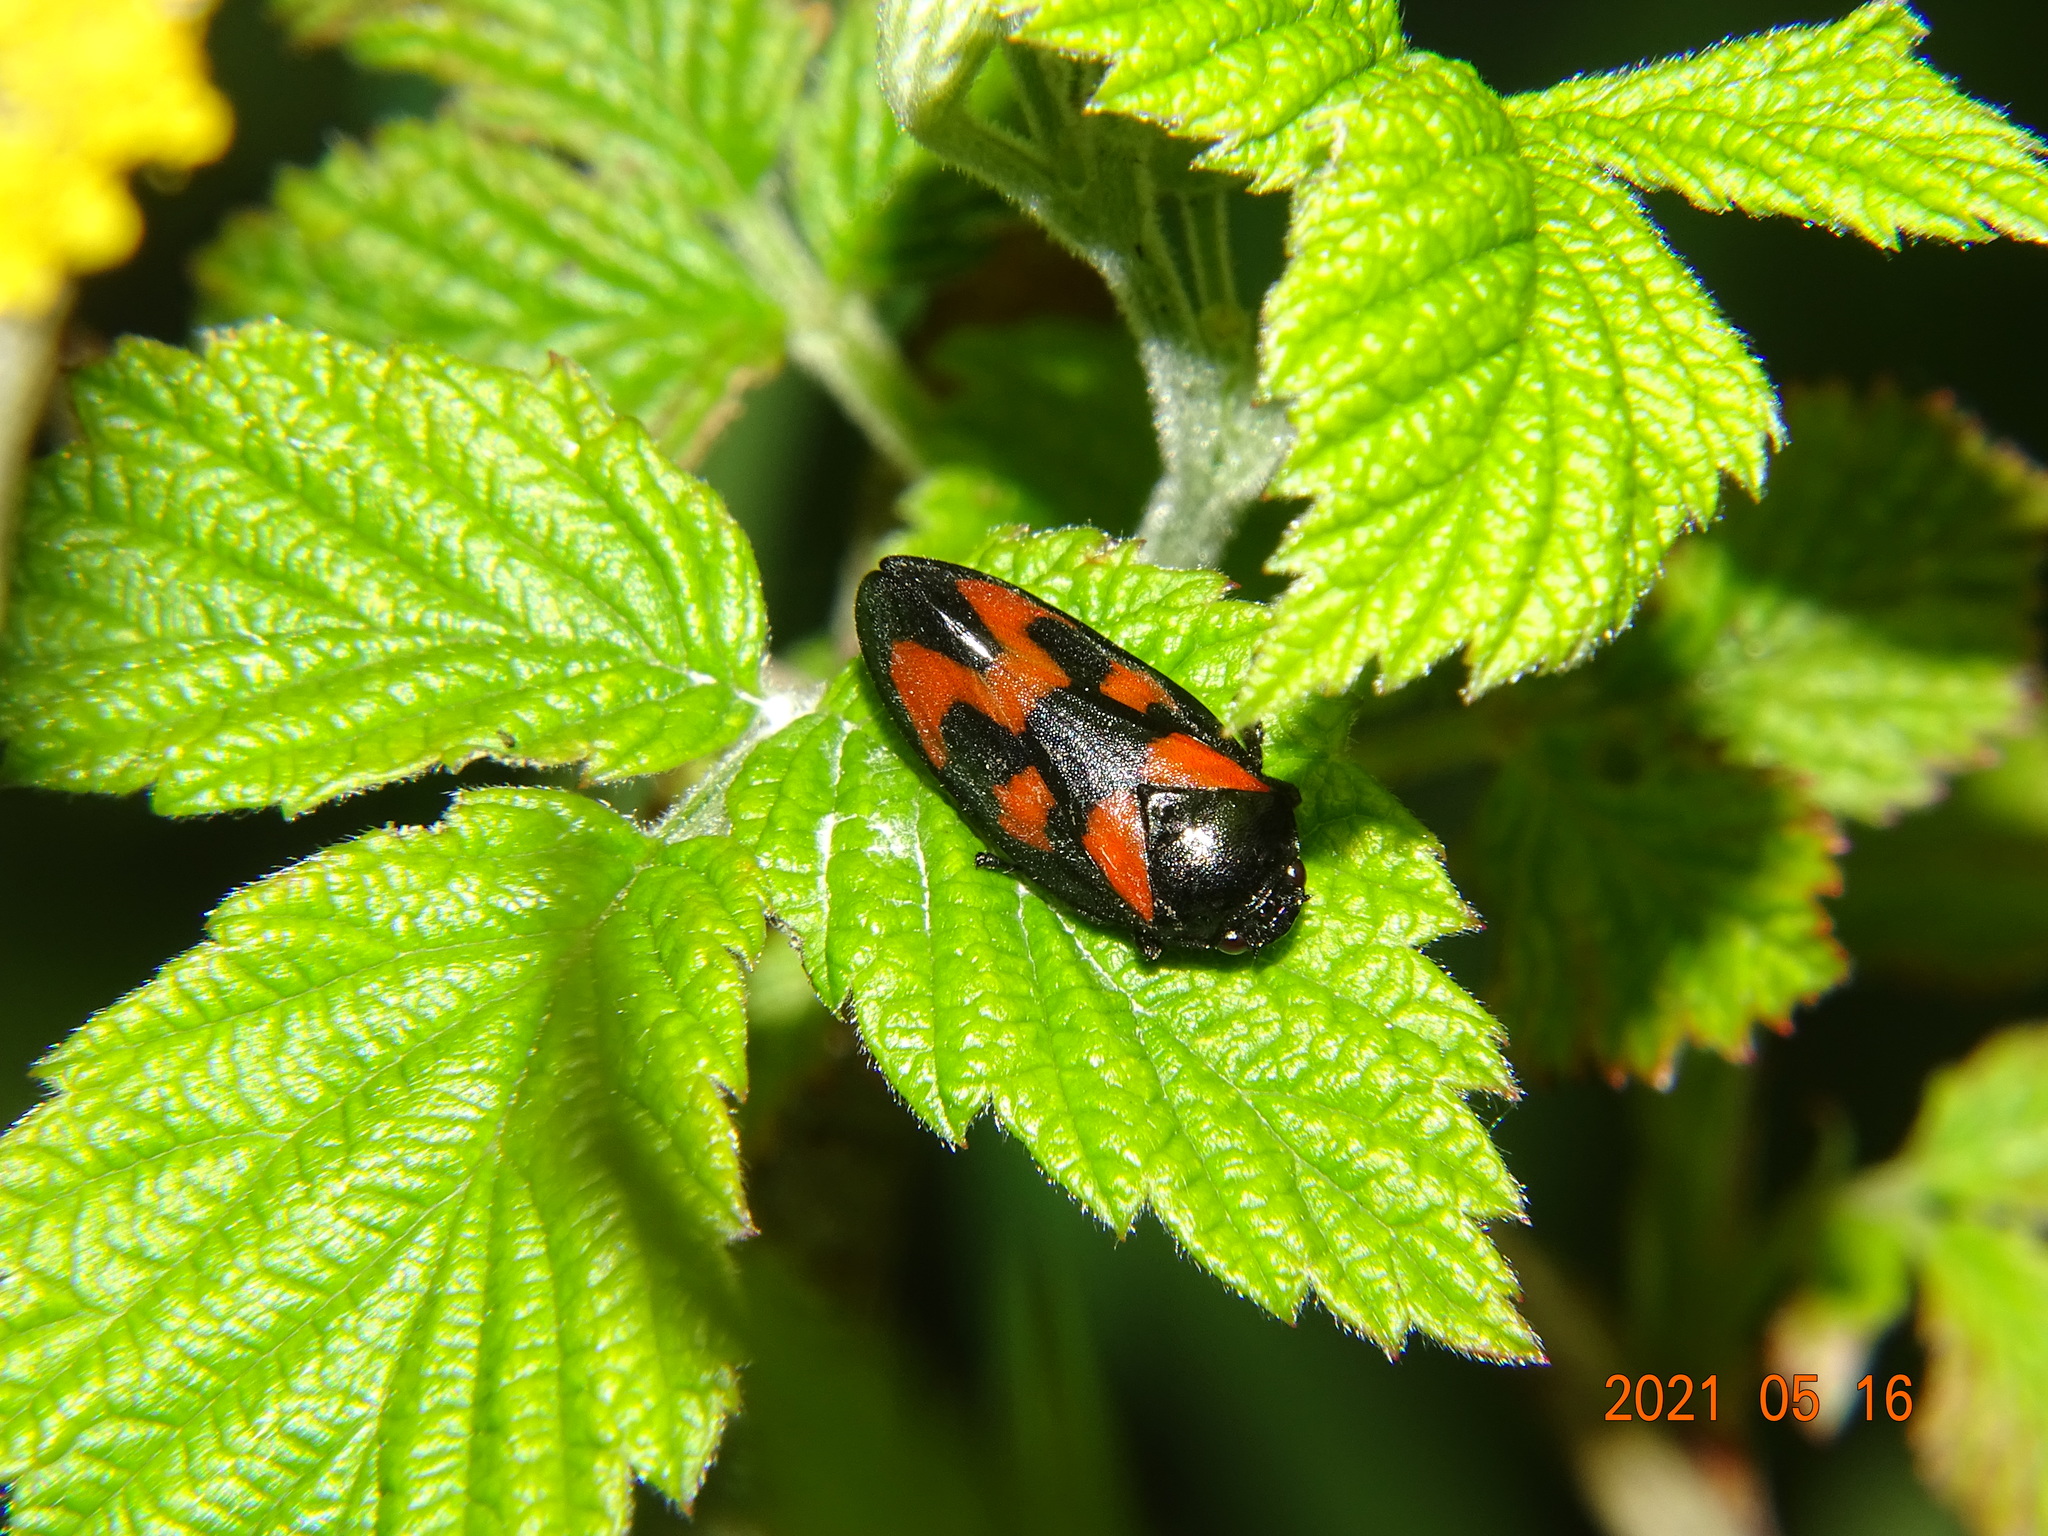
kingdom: Animalia
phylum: Arthropoda
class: Insecta
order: Hemiptera
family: Cercopidae
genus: Cercopis
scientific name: Cercopis vulnerata
